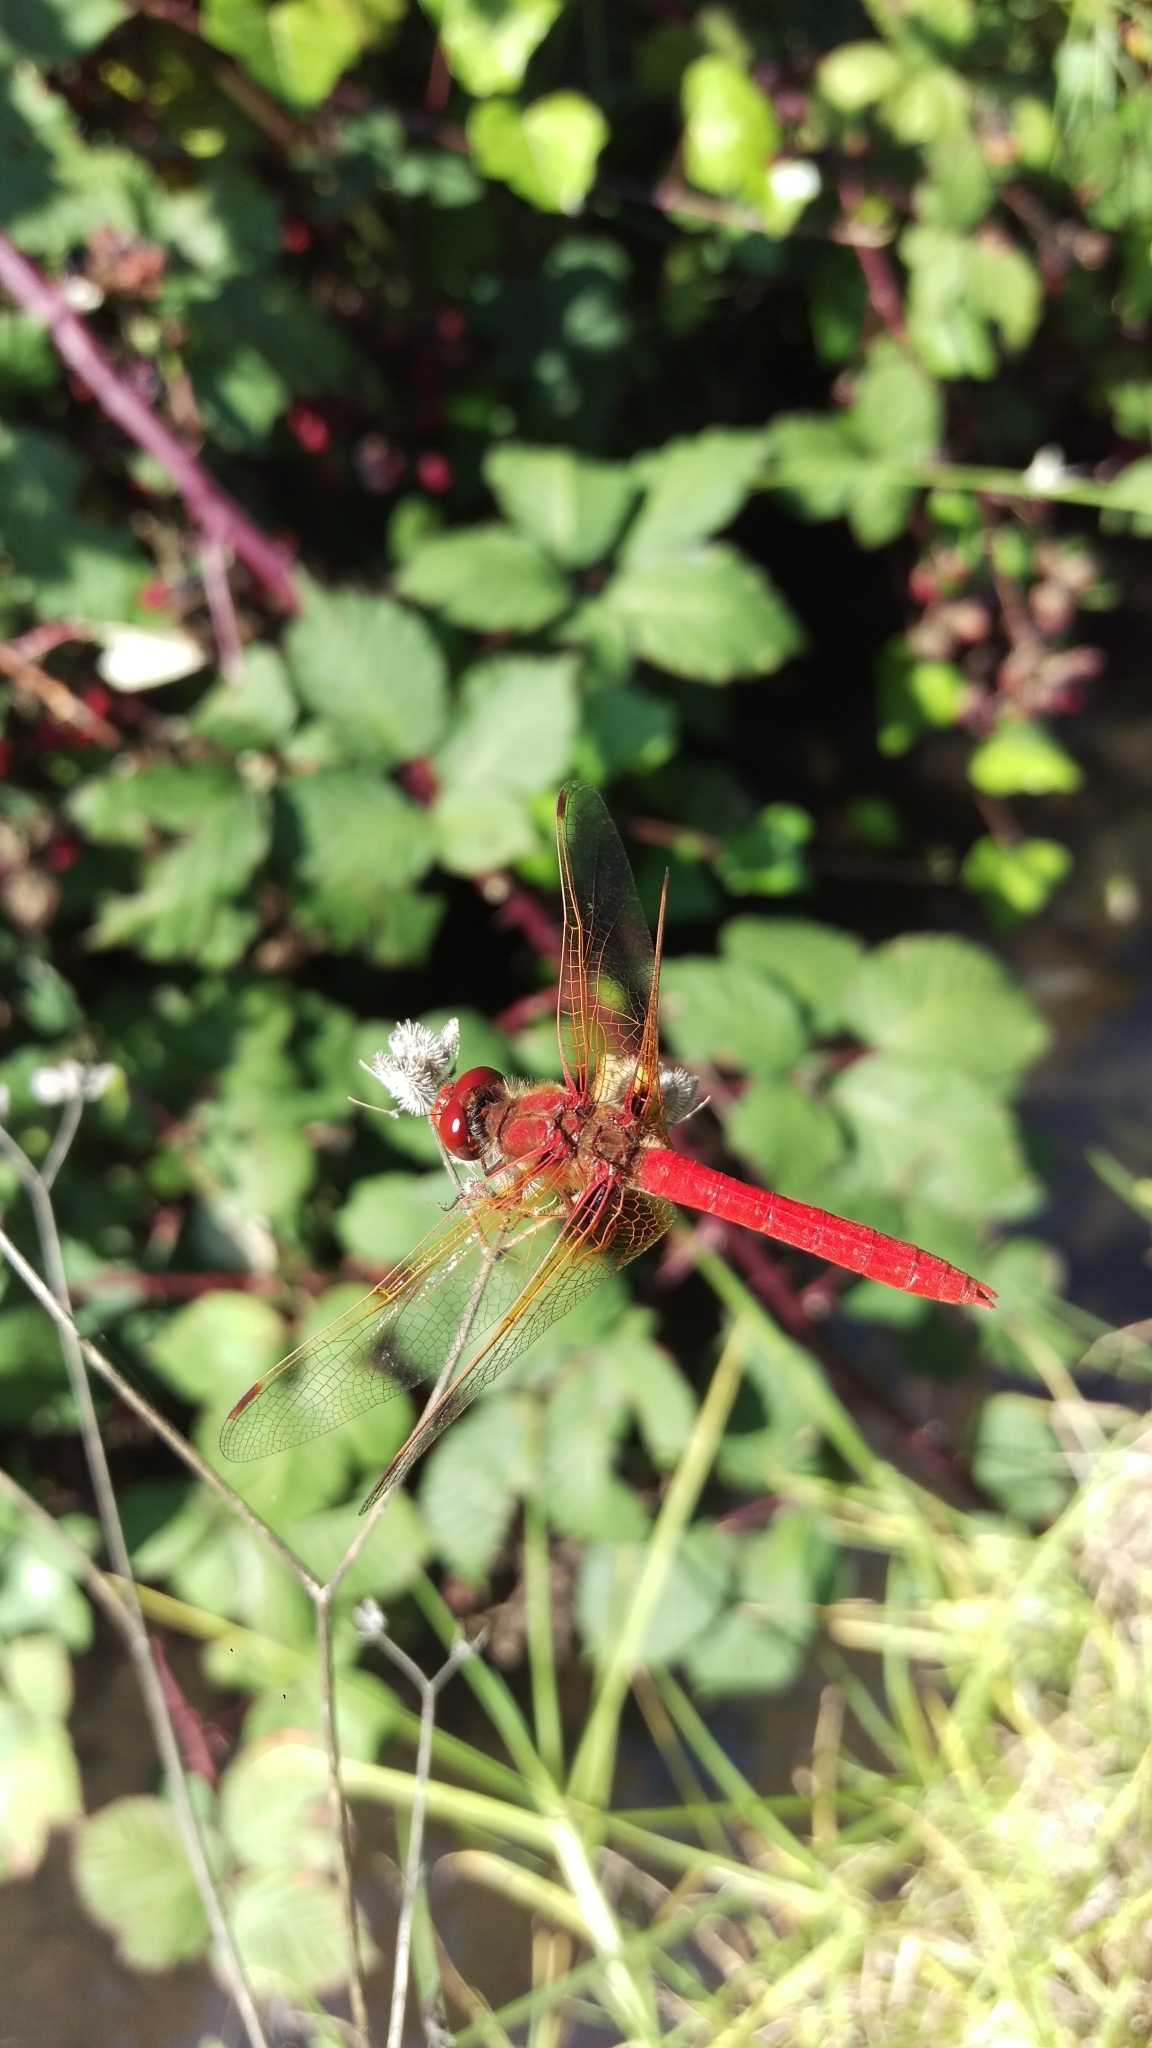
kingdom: Animalia
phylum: Arthropoda
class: Insecta
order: Odonata
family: Libellulidae
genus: Sympetrum
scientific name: Sympetrum illotum
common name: Cardinal meadowhawk
